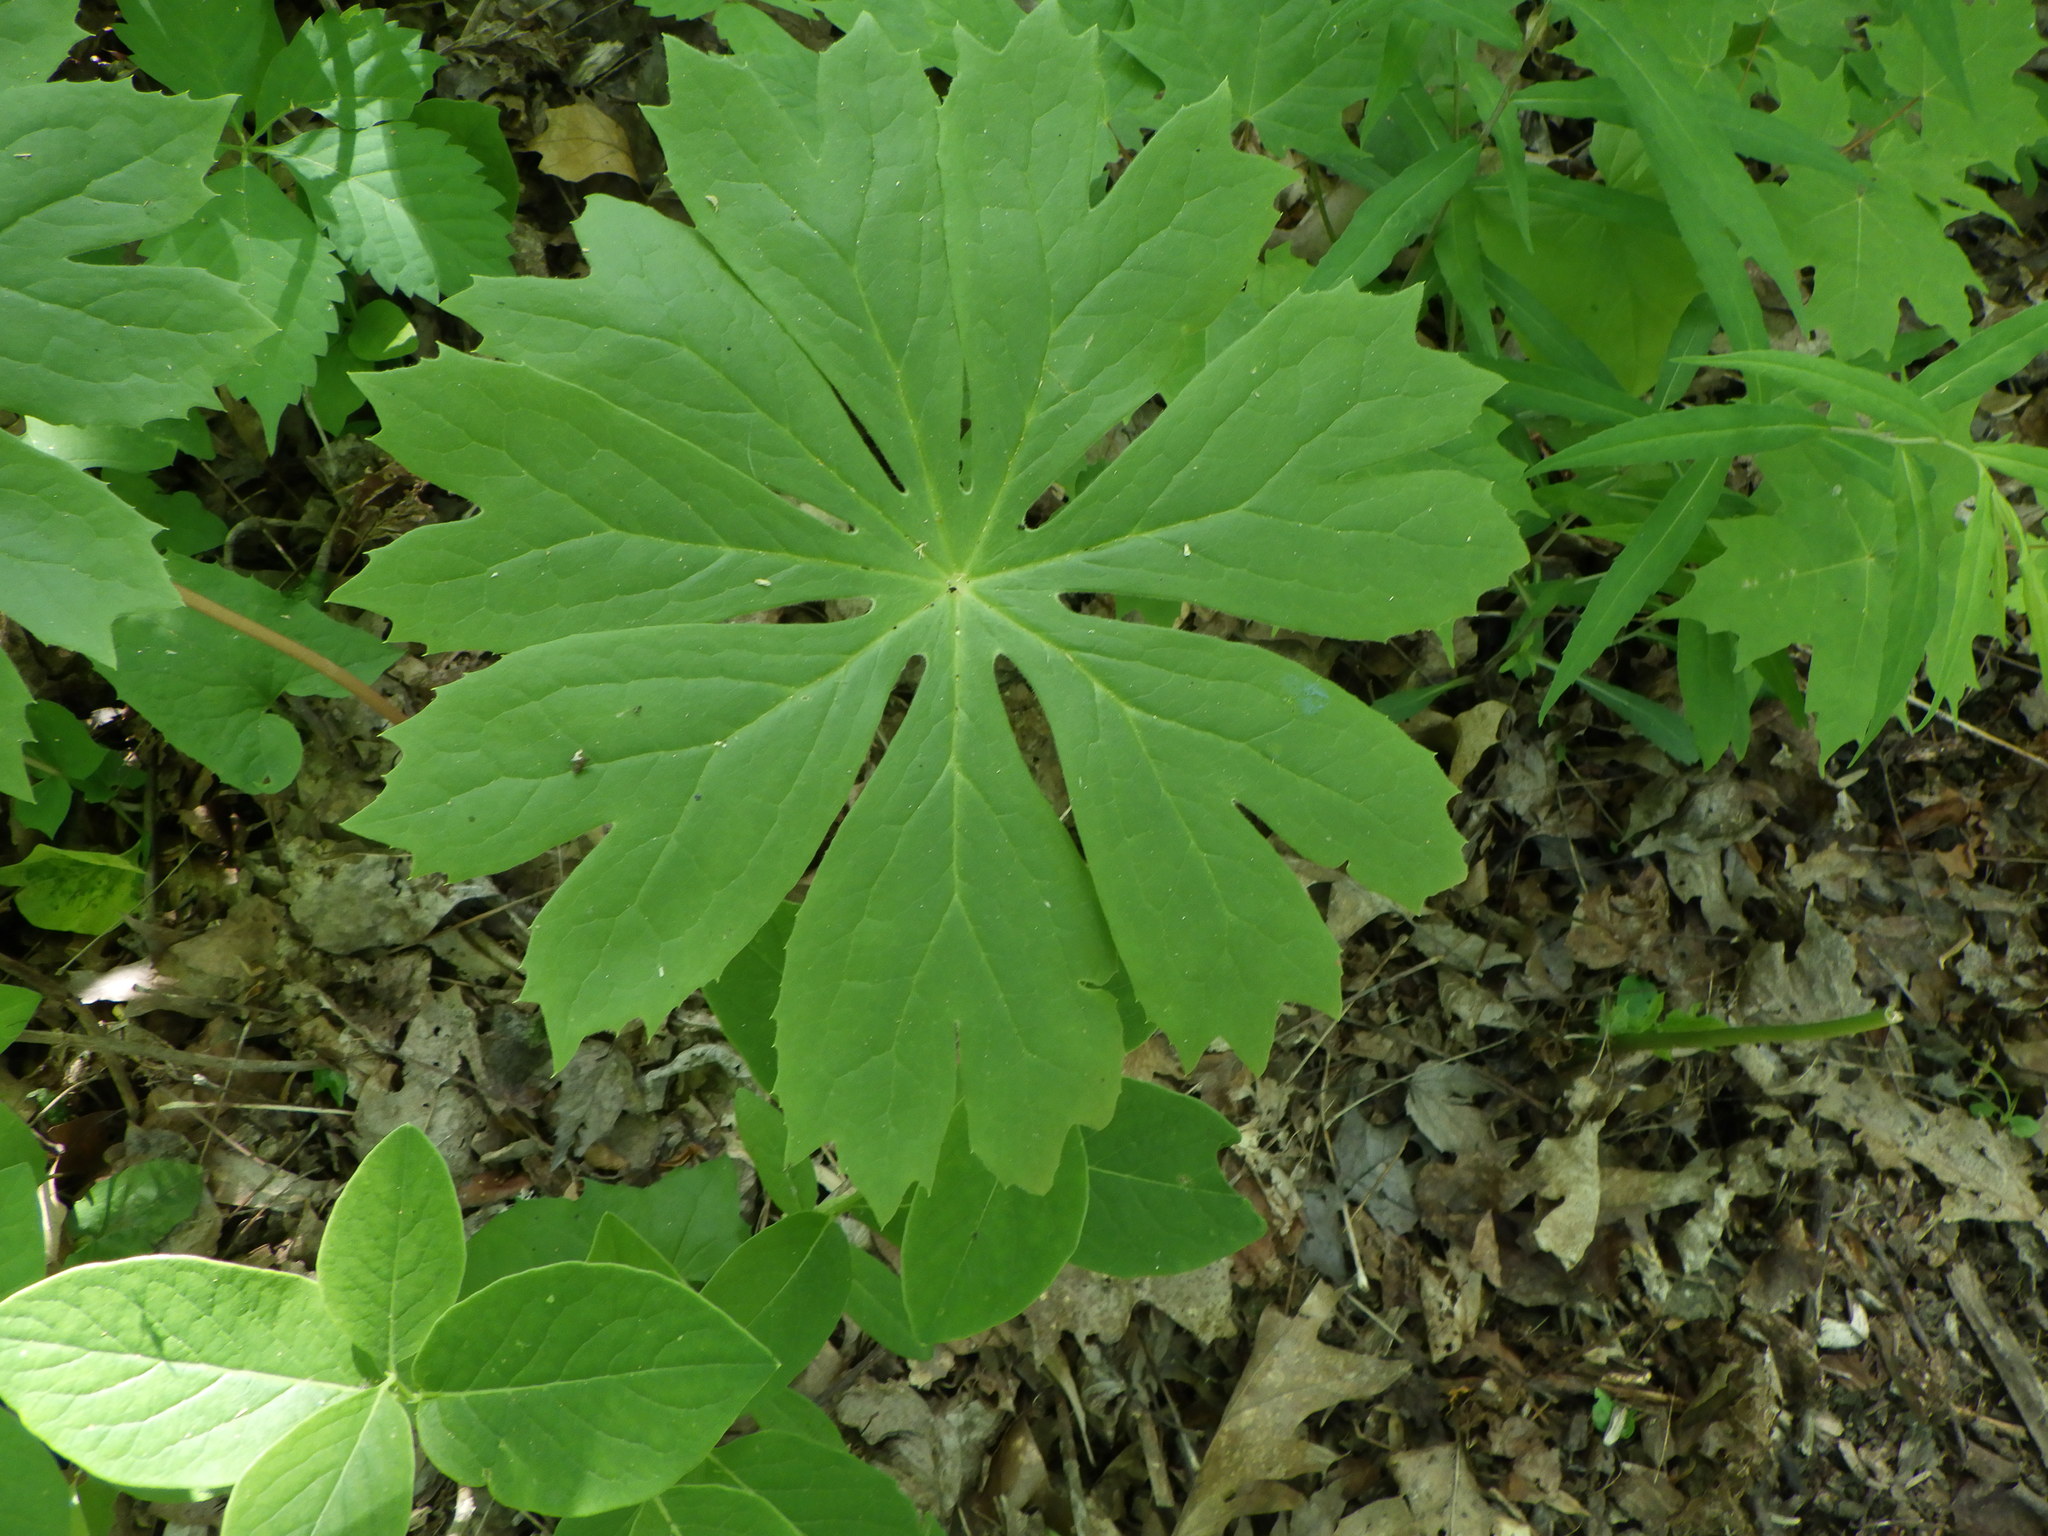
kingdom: Plantae
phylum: Tracheophyta
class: Magnoliopsida
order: Ranunculales
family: Berberidaceae
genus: Podophyllum
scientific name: Podophyllum peltatum
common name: Wild mandrake
